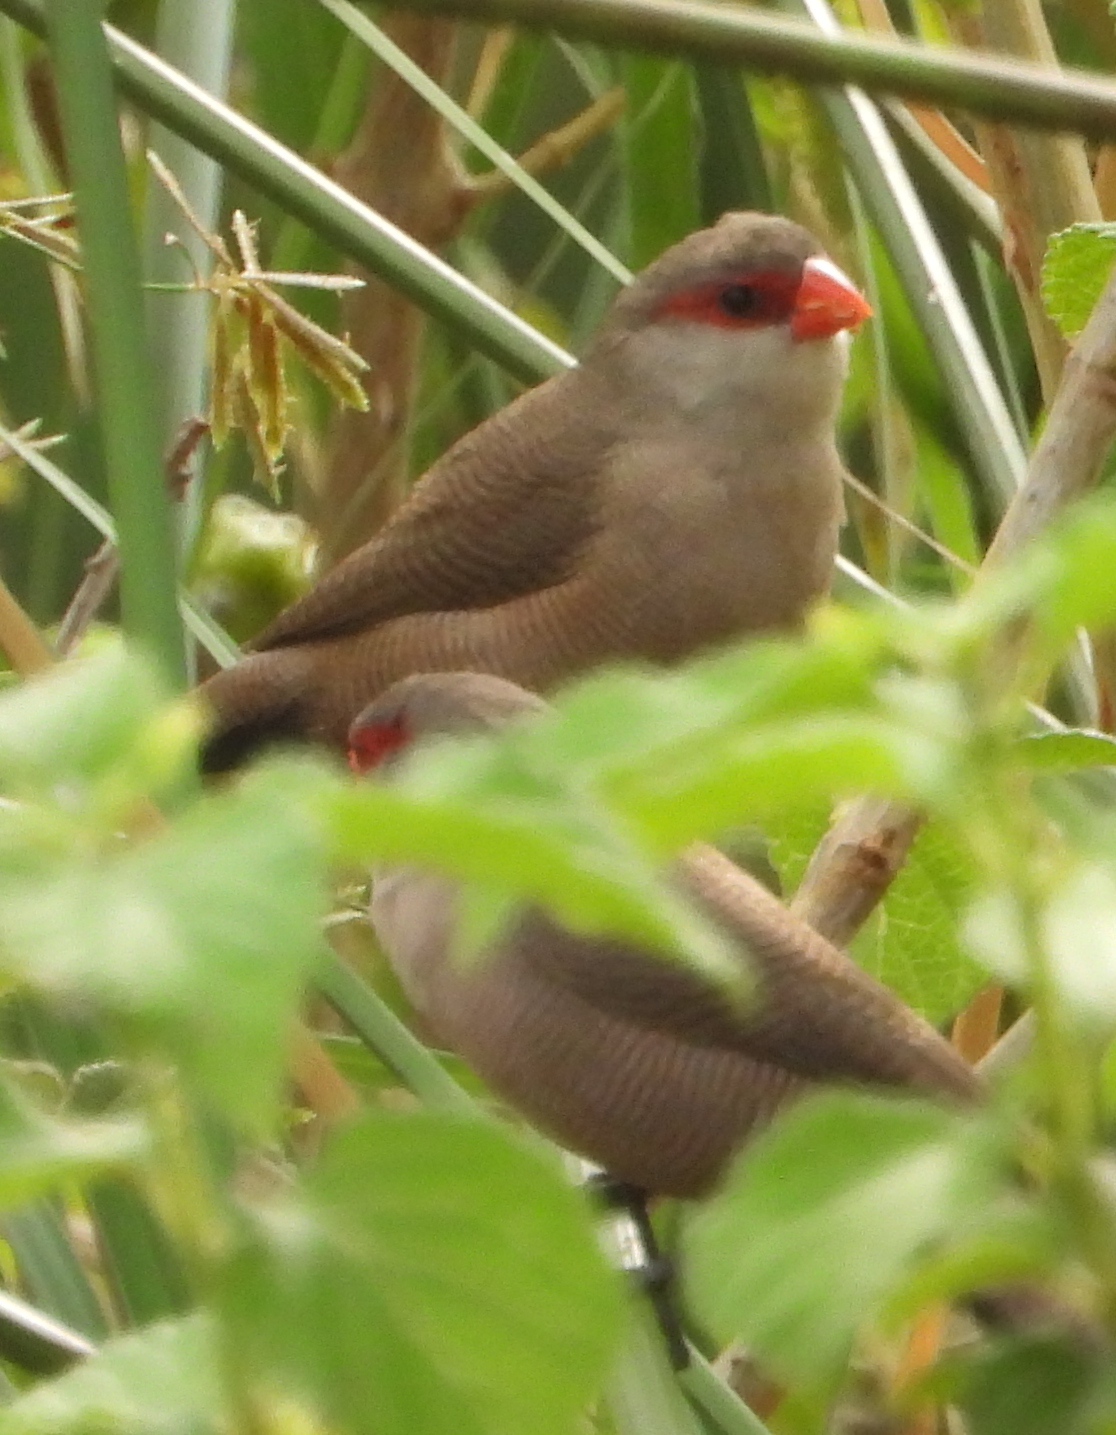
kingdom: Animalia
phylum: Chordata
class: Aves
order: Passeriformes
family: Estrildidae
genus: Estrilda
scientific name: Estrilda astrild
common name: Common waxbill
